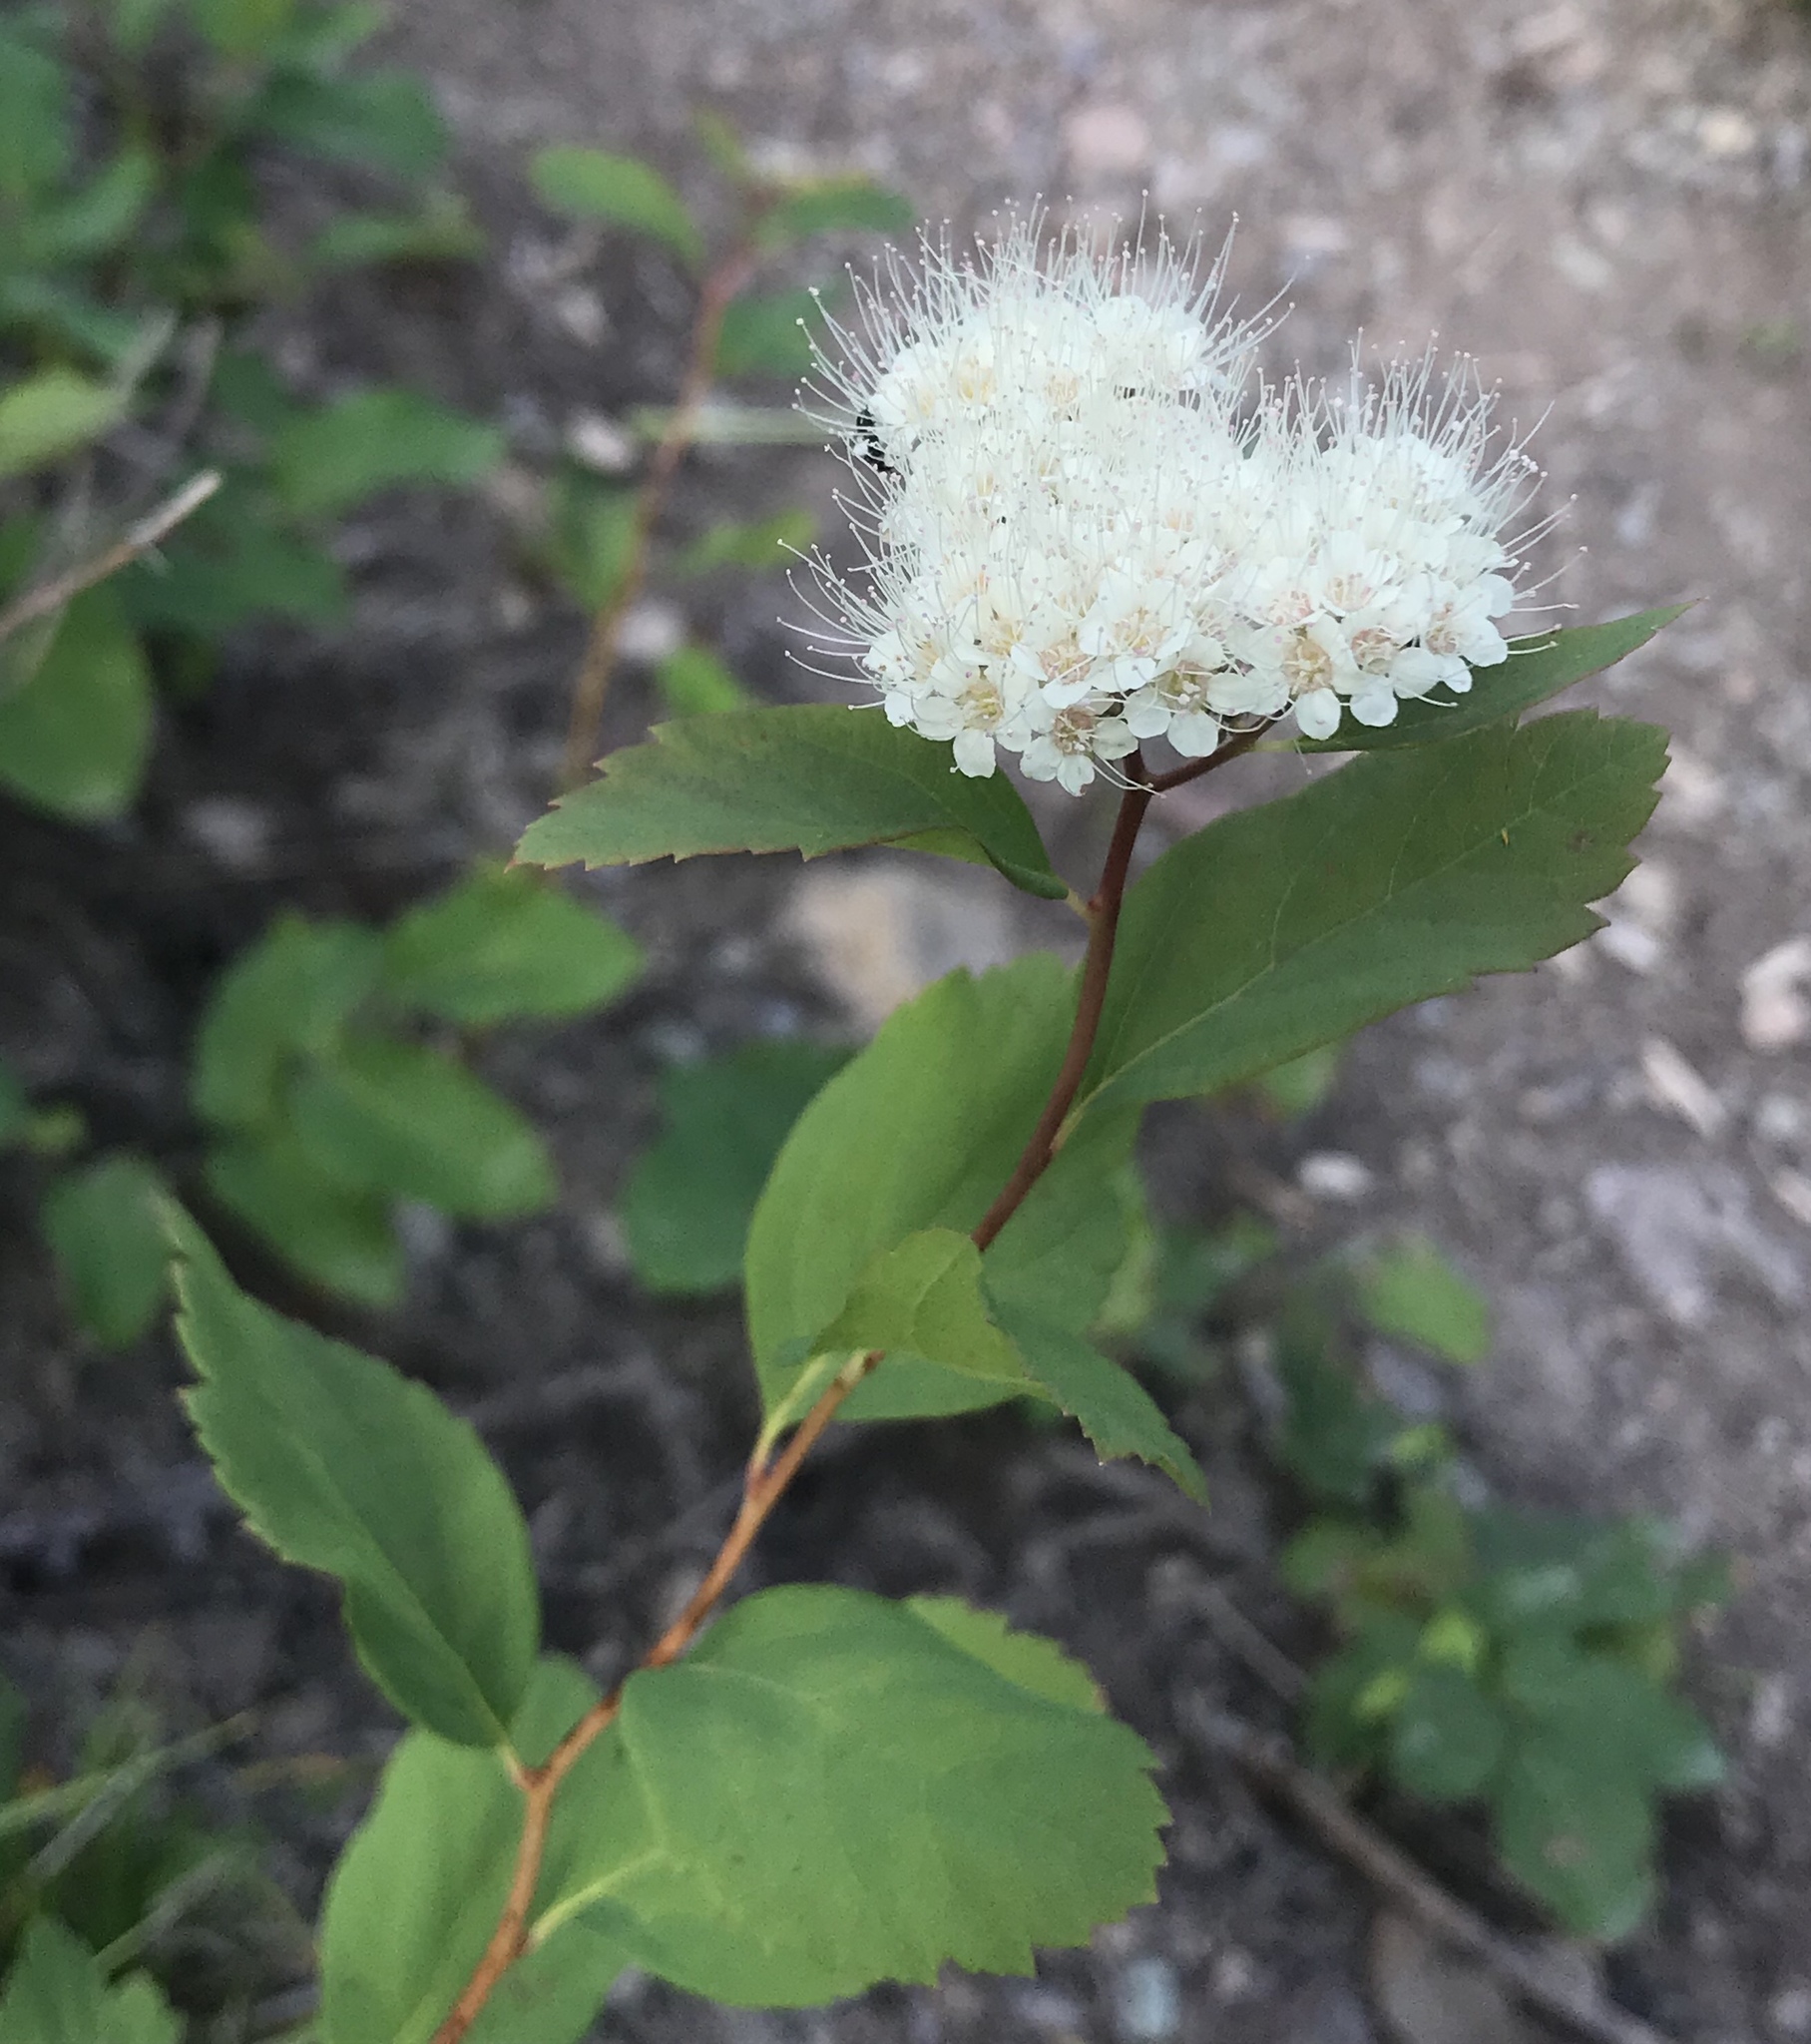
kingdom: Plantae
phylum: Tracheophyta
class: Magnoliopsida
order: Rosales
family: Rosaceae
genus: Spiraea
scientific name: Spiraea lucida
